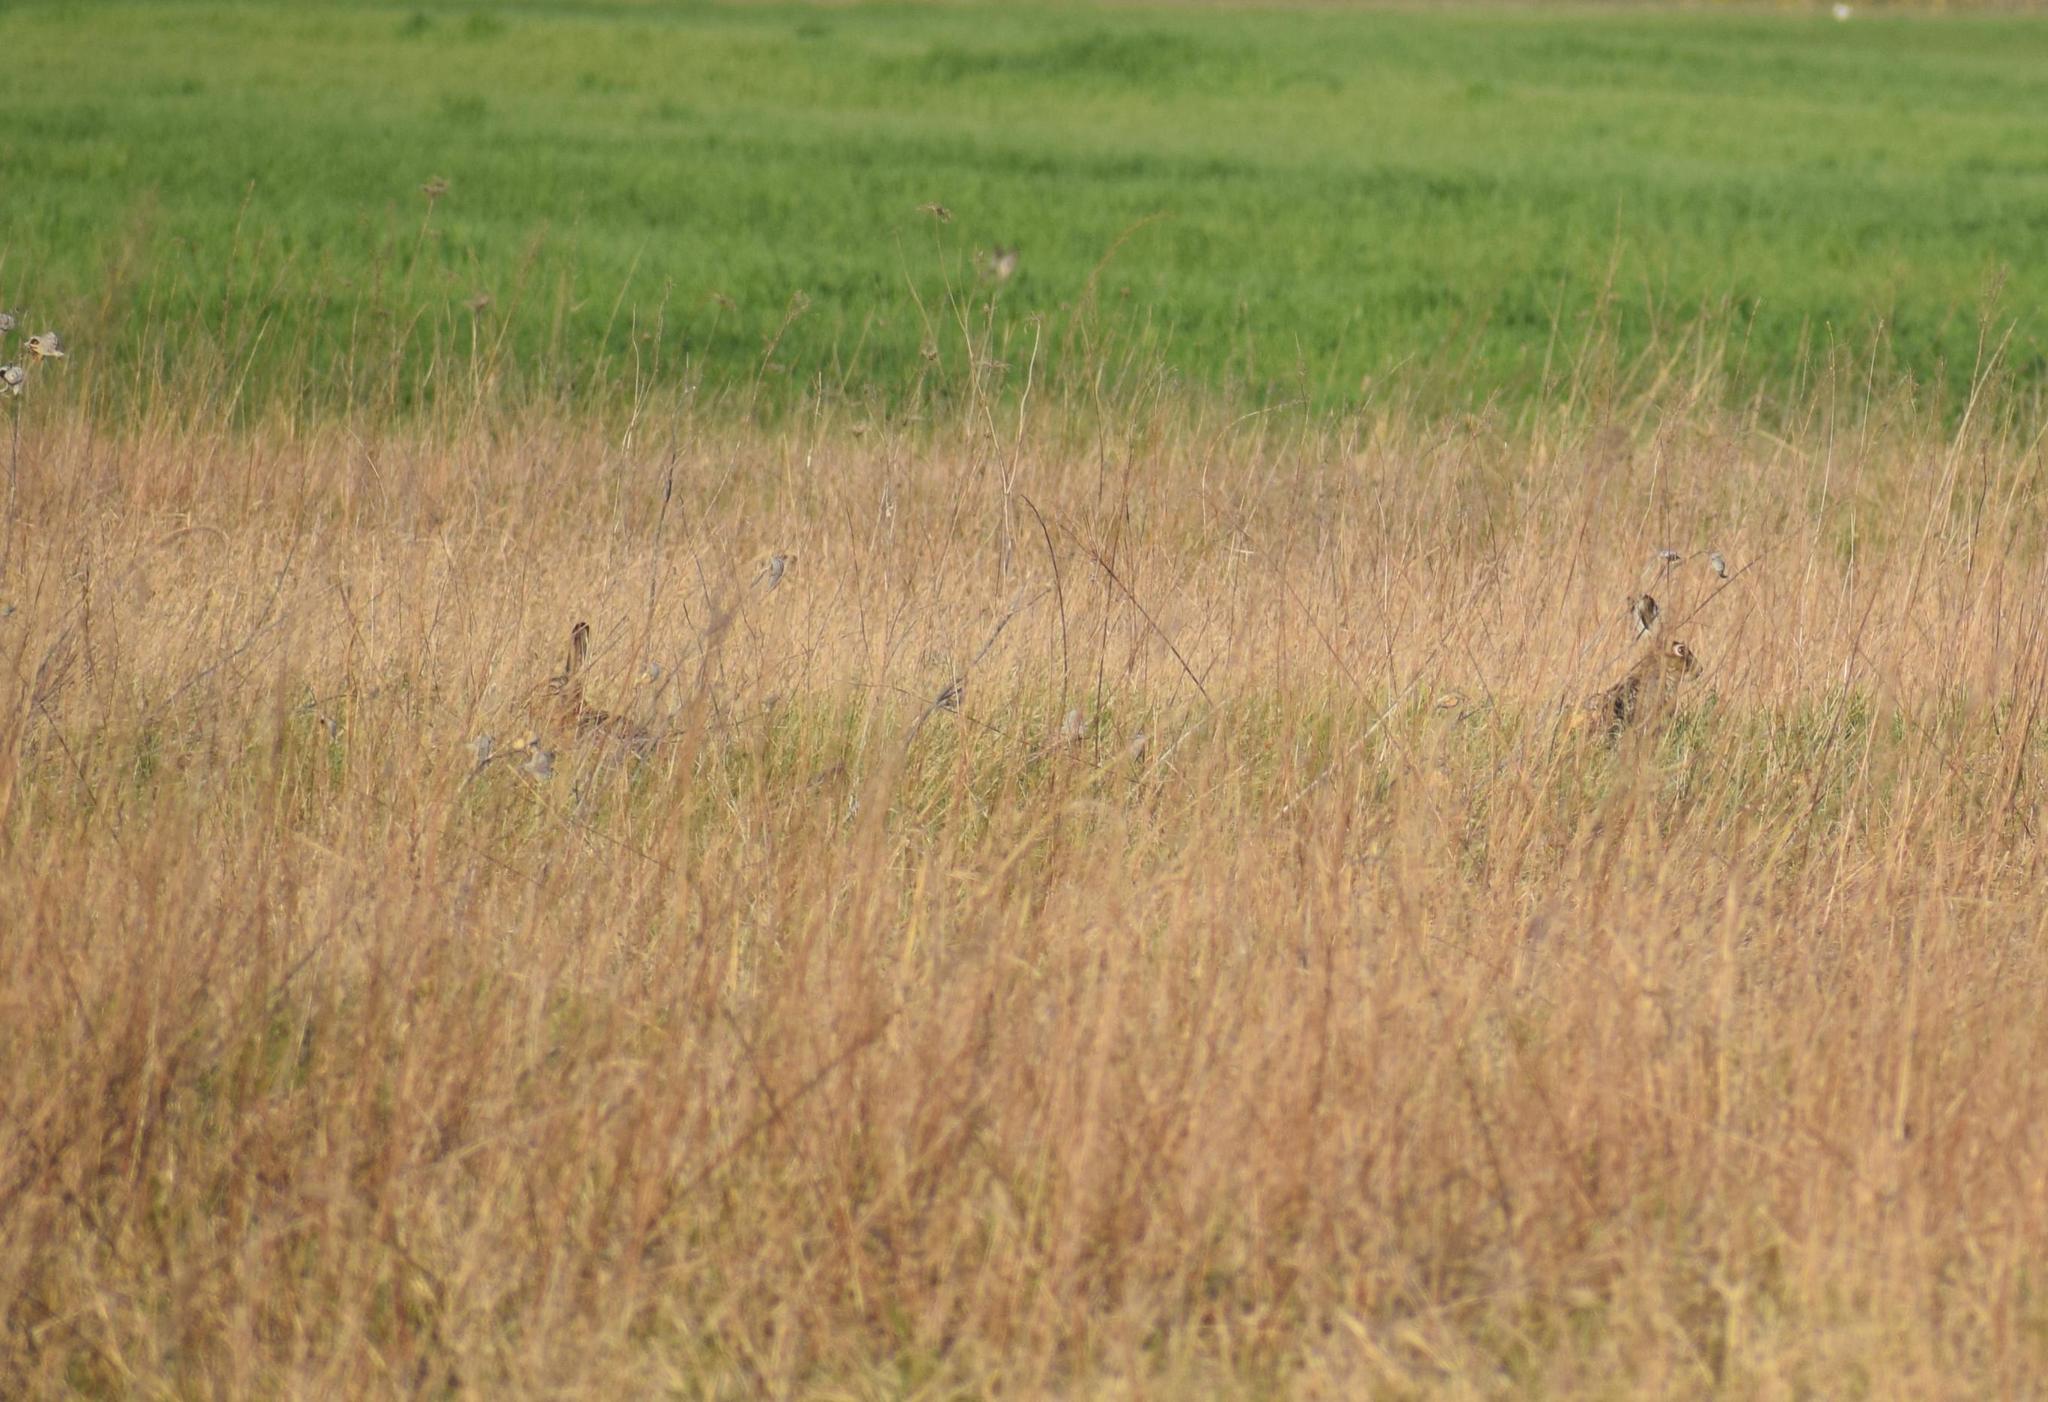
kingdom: Animalia
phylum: Chordata
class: Mammalia
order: Lagomorpha
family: Leporidae
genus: Lepus
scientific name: Lepus europaeus
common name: European hare
